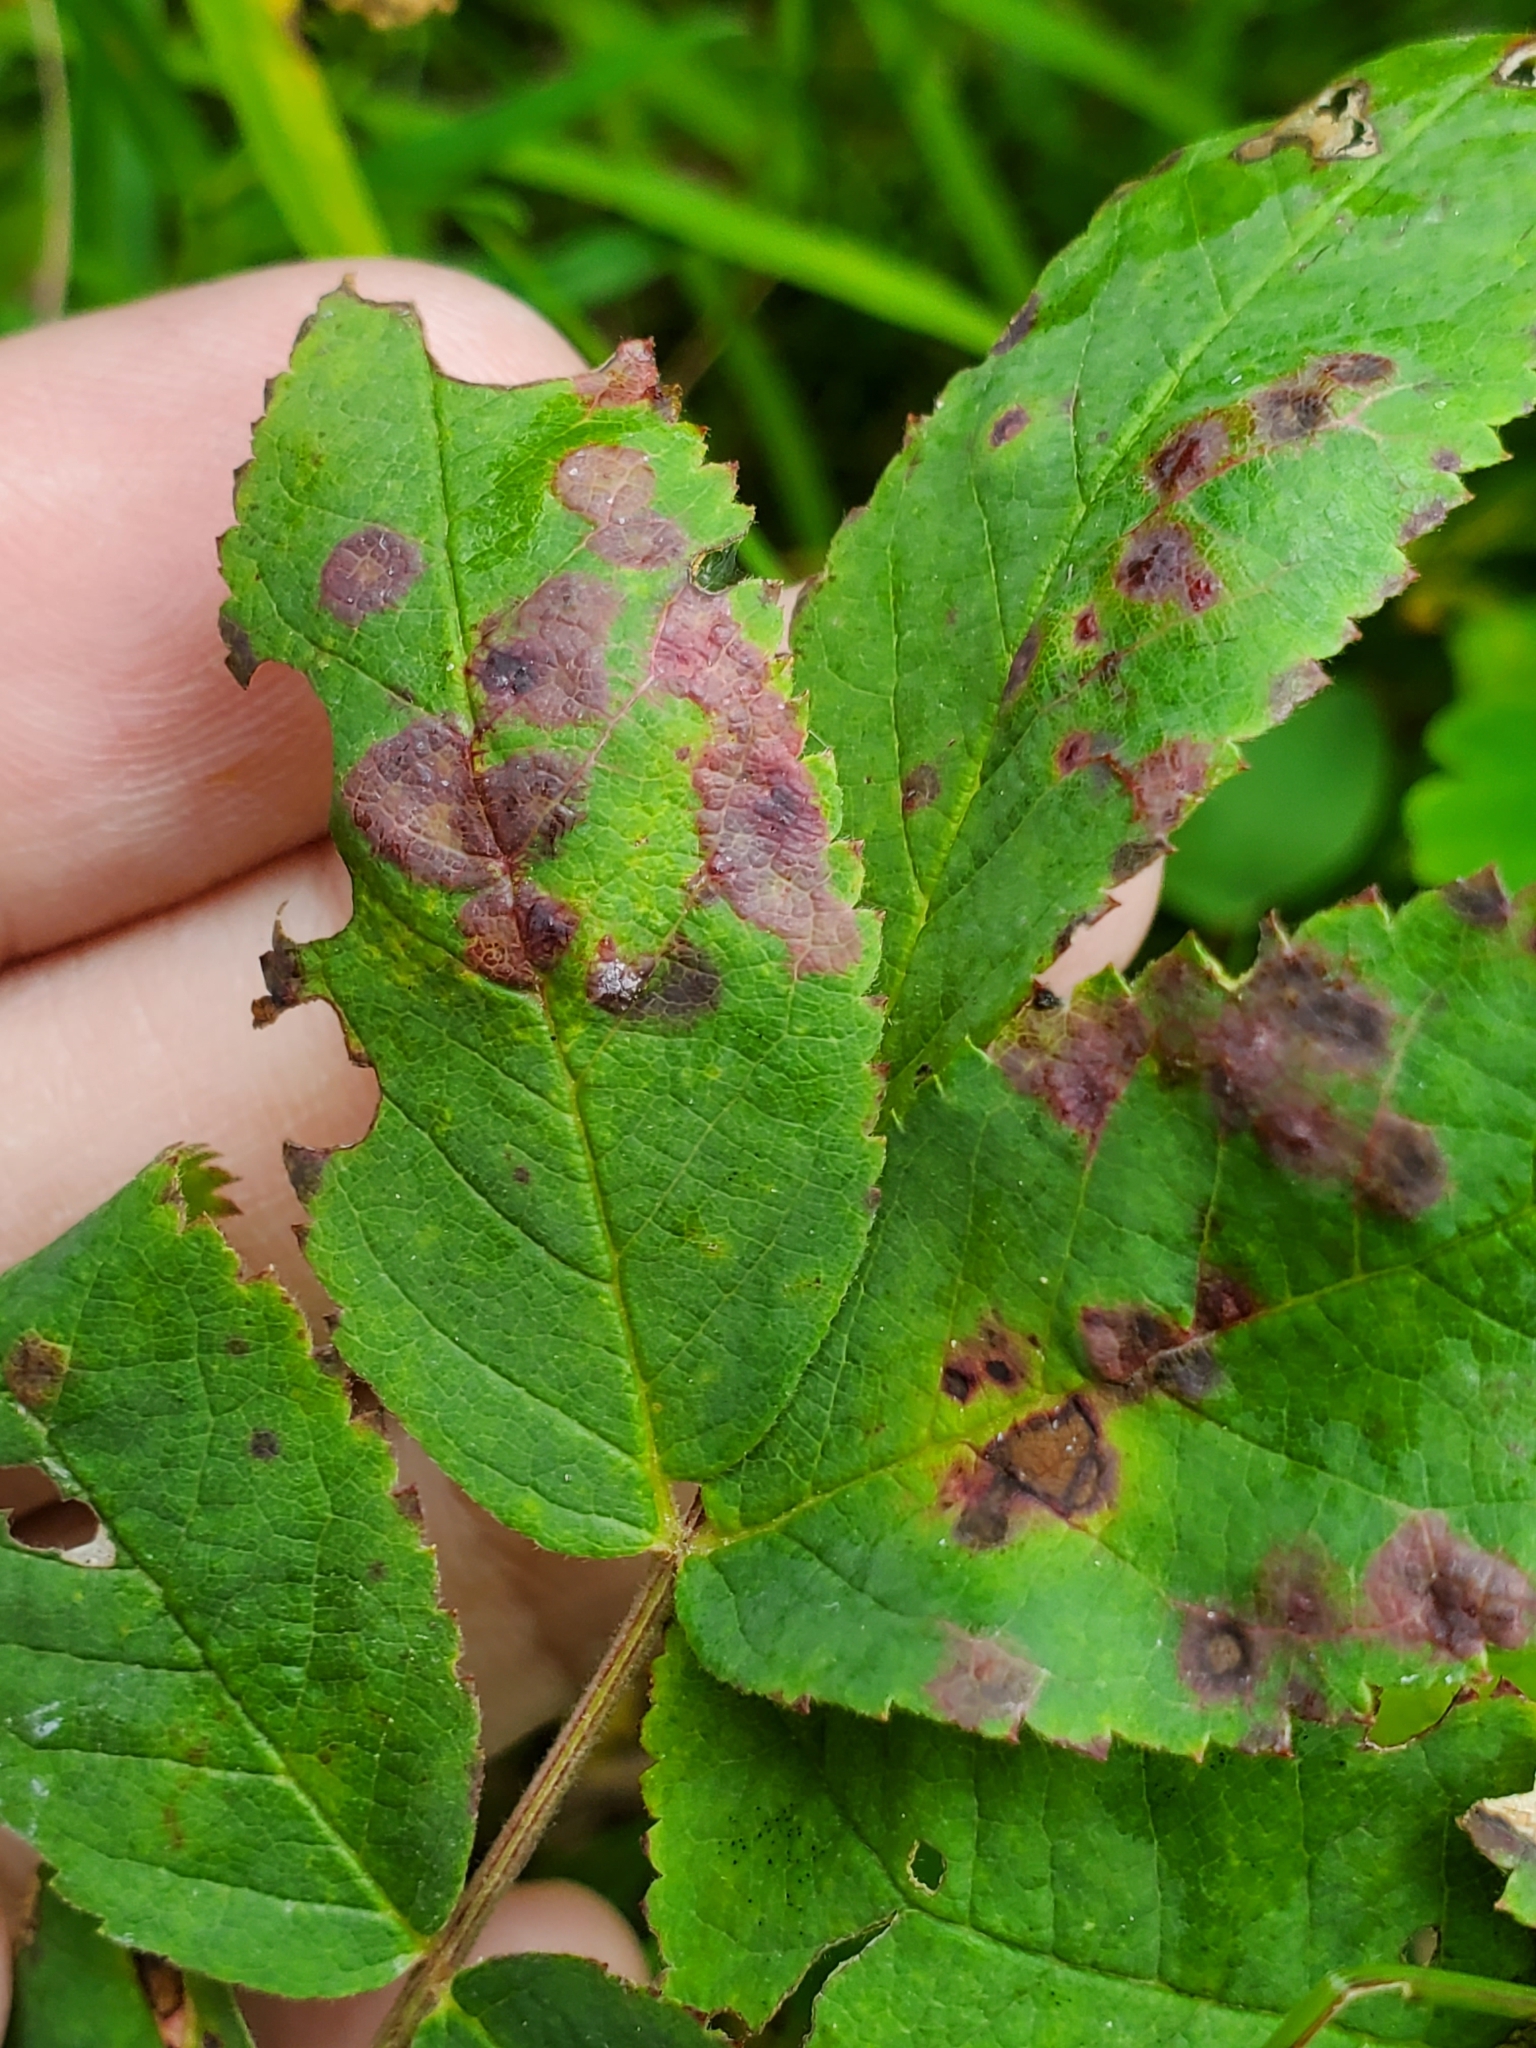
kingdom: Animalia
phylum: Arthropoda
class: Insecta
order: Hymenoptera
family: Cynipidae
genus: Diplolepis
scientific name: Diplolepis rosaefolii
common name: Blister-gall wasp
